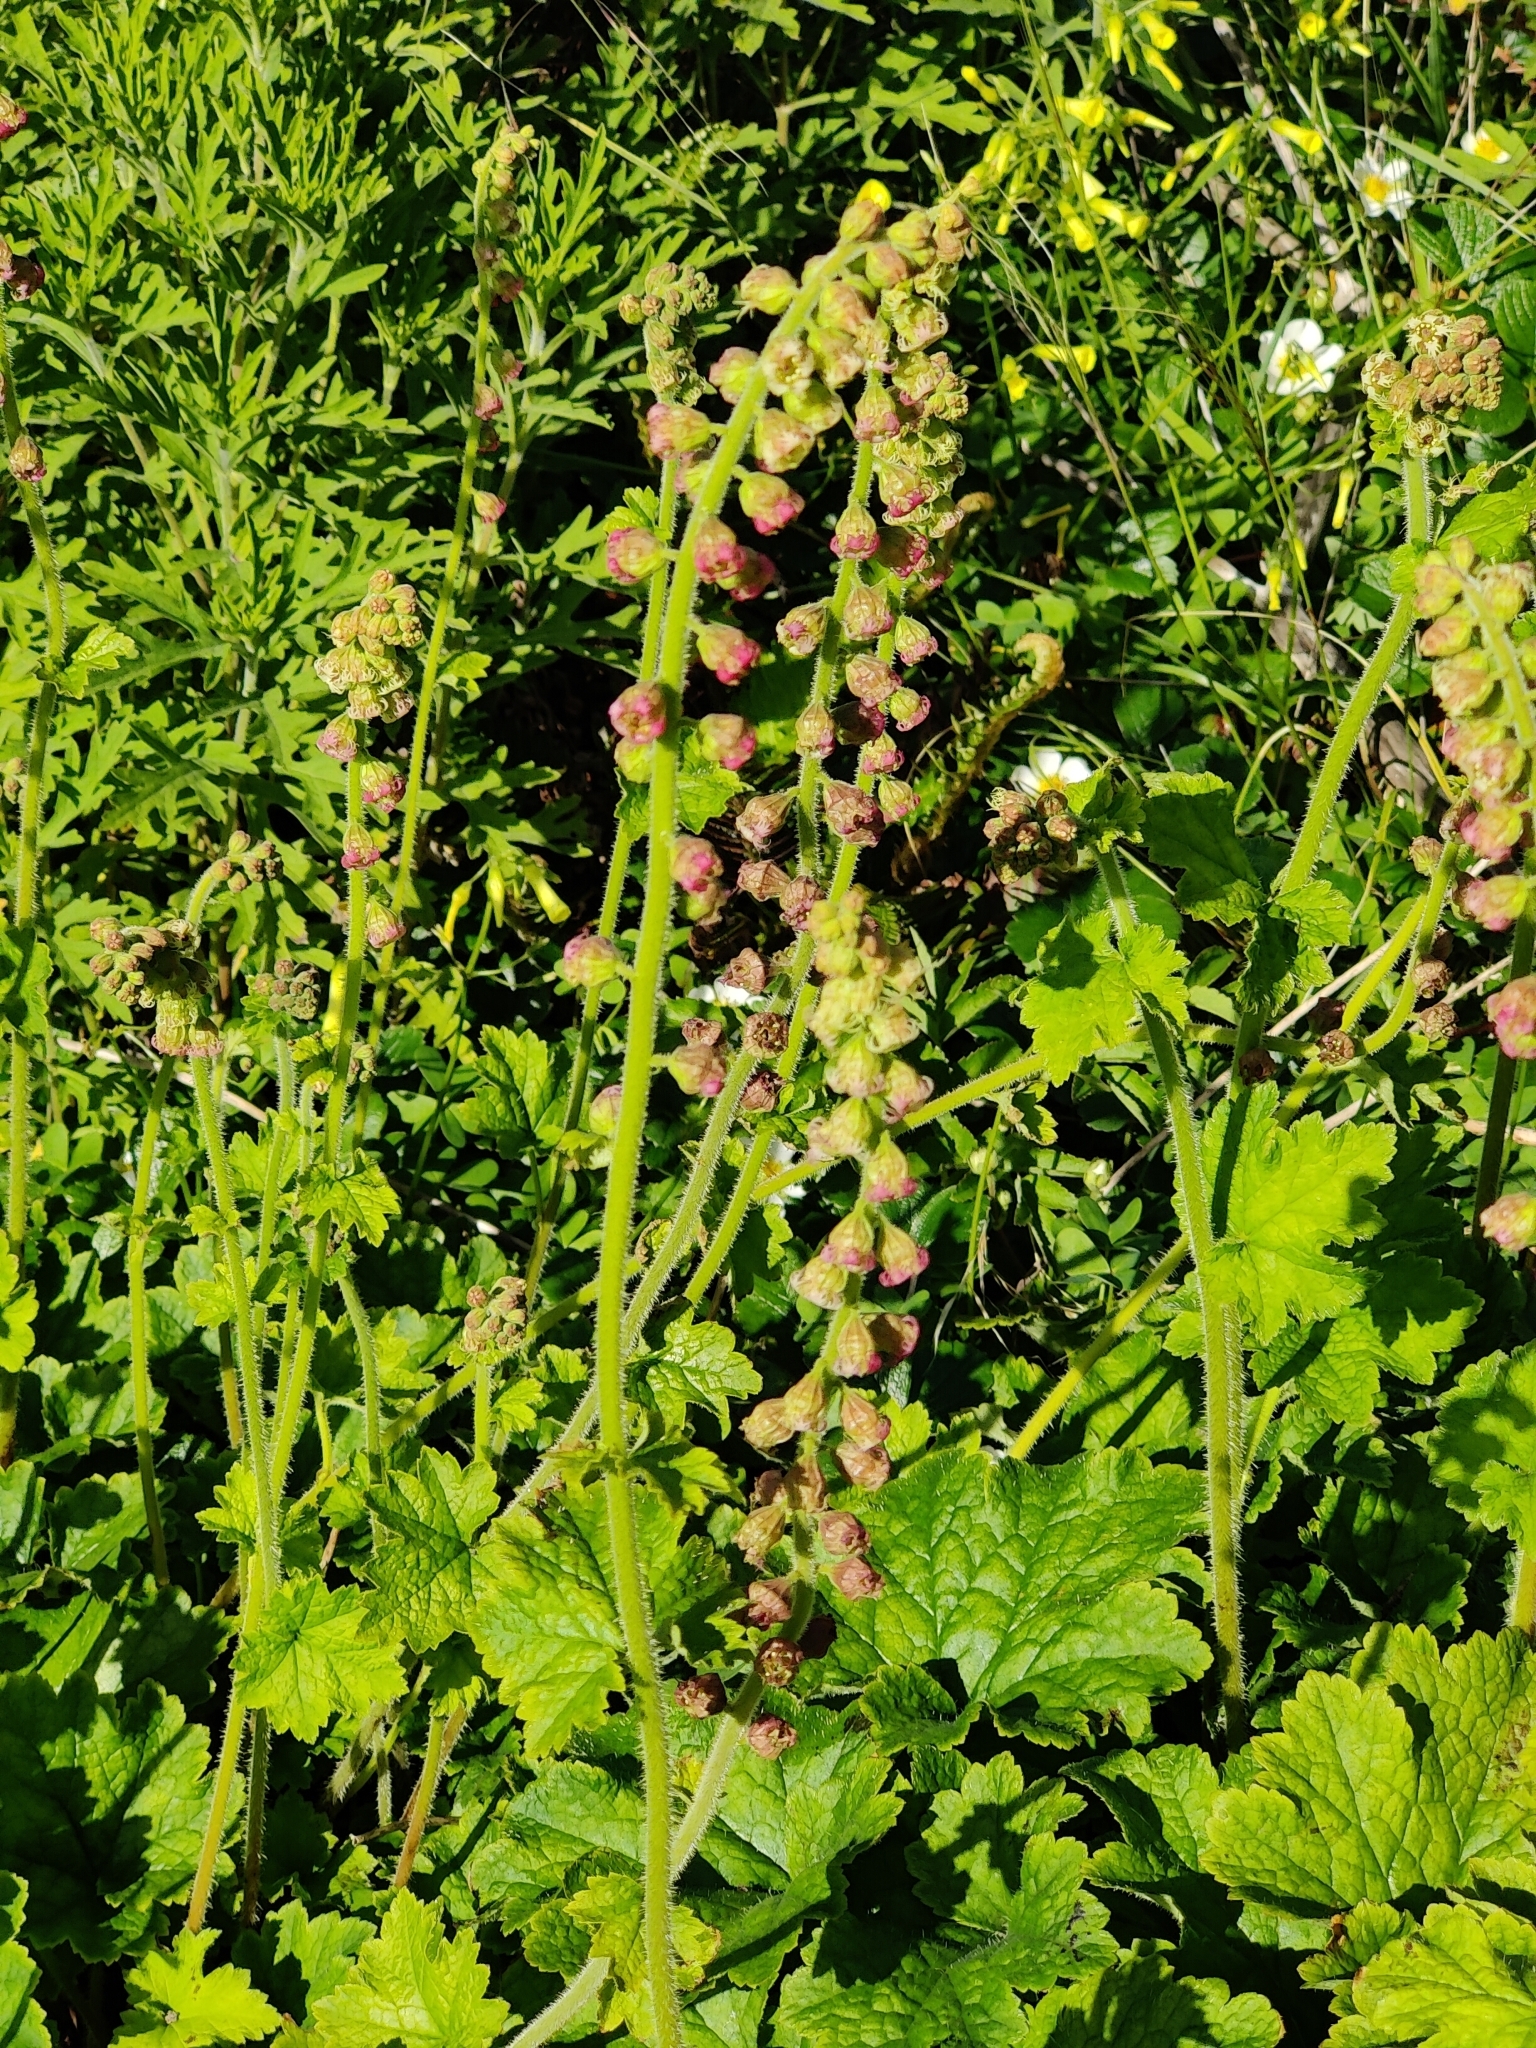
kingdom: Plantae
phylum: Tracheophyta
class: Magnoliopsida
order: Saxifragales
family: Saxifragaceae
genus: Tellima
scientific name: Tellima grandiflora
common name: Fringecups
